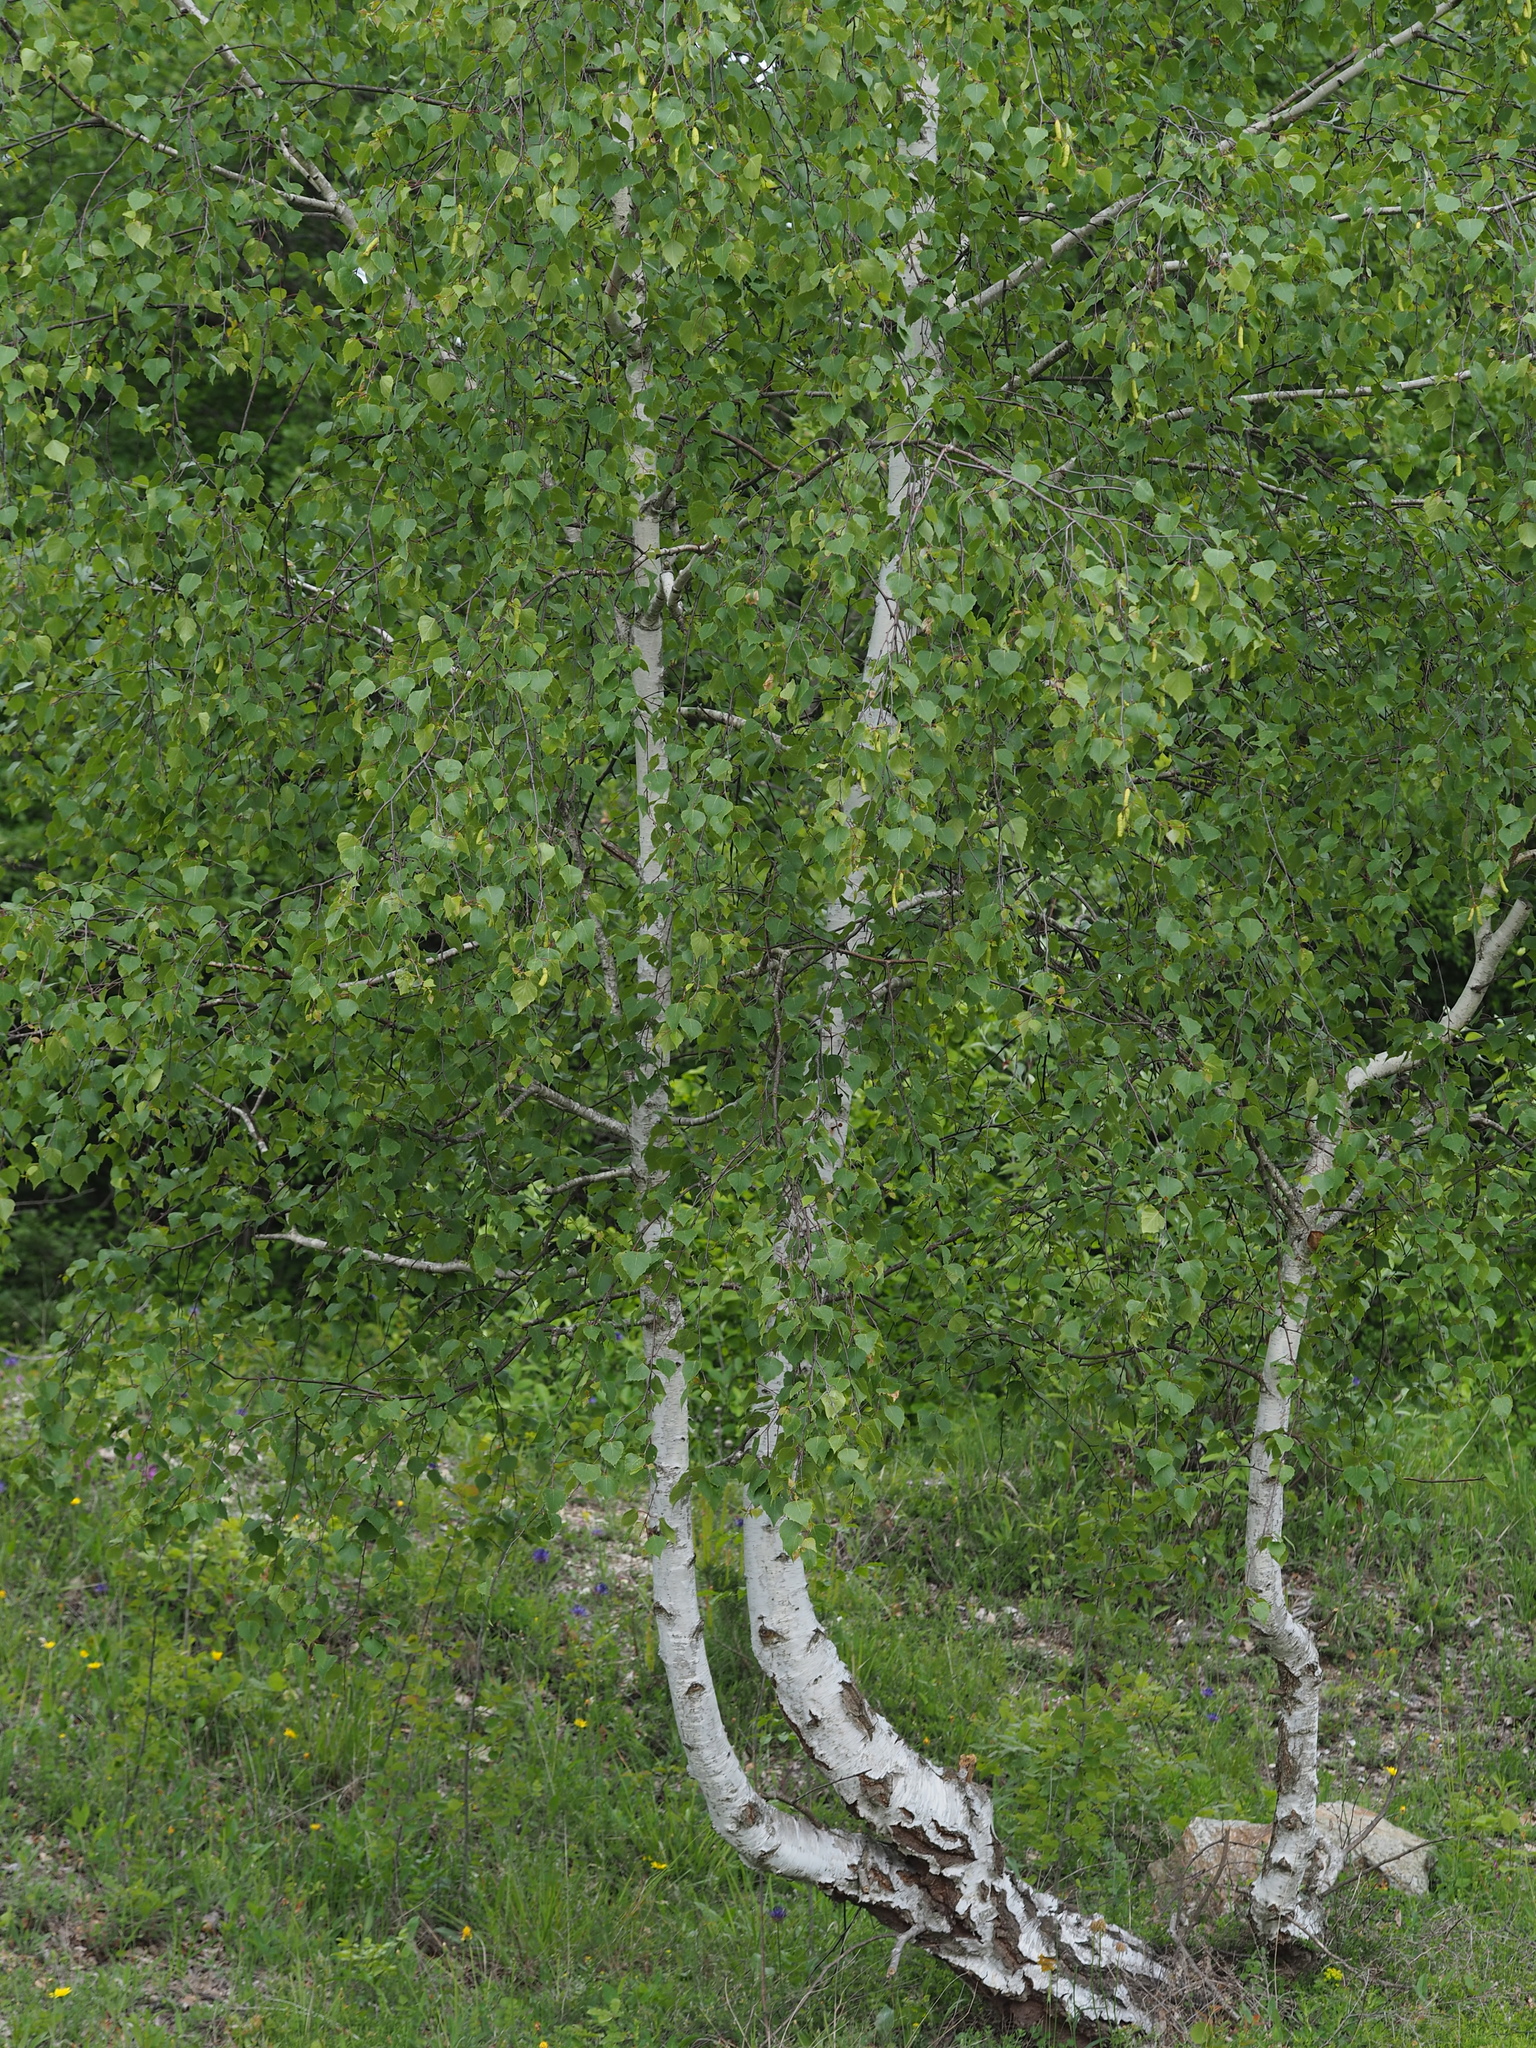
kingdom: Plantae
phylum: Tracheophyta
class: Magnoliopsida
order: Fagales
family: Betulaceae
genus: Betula
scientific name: Betula pendula
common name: Silver birch
